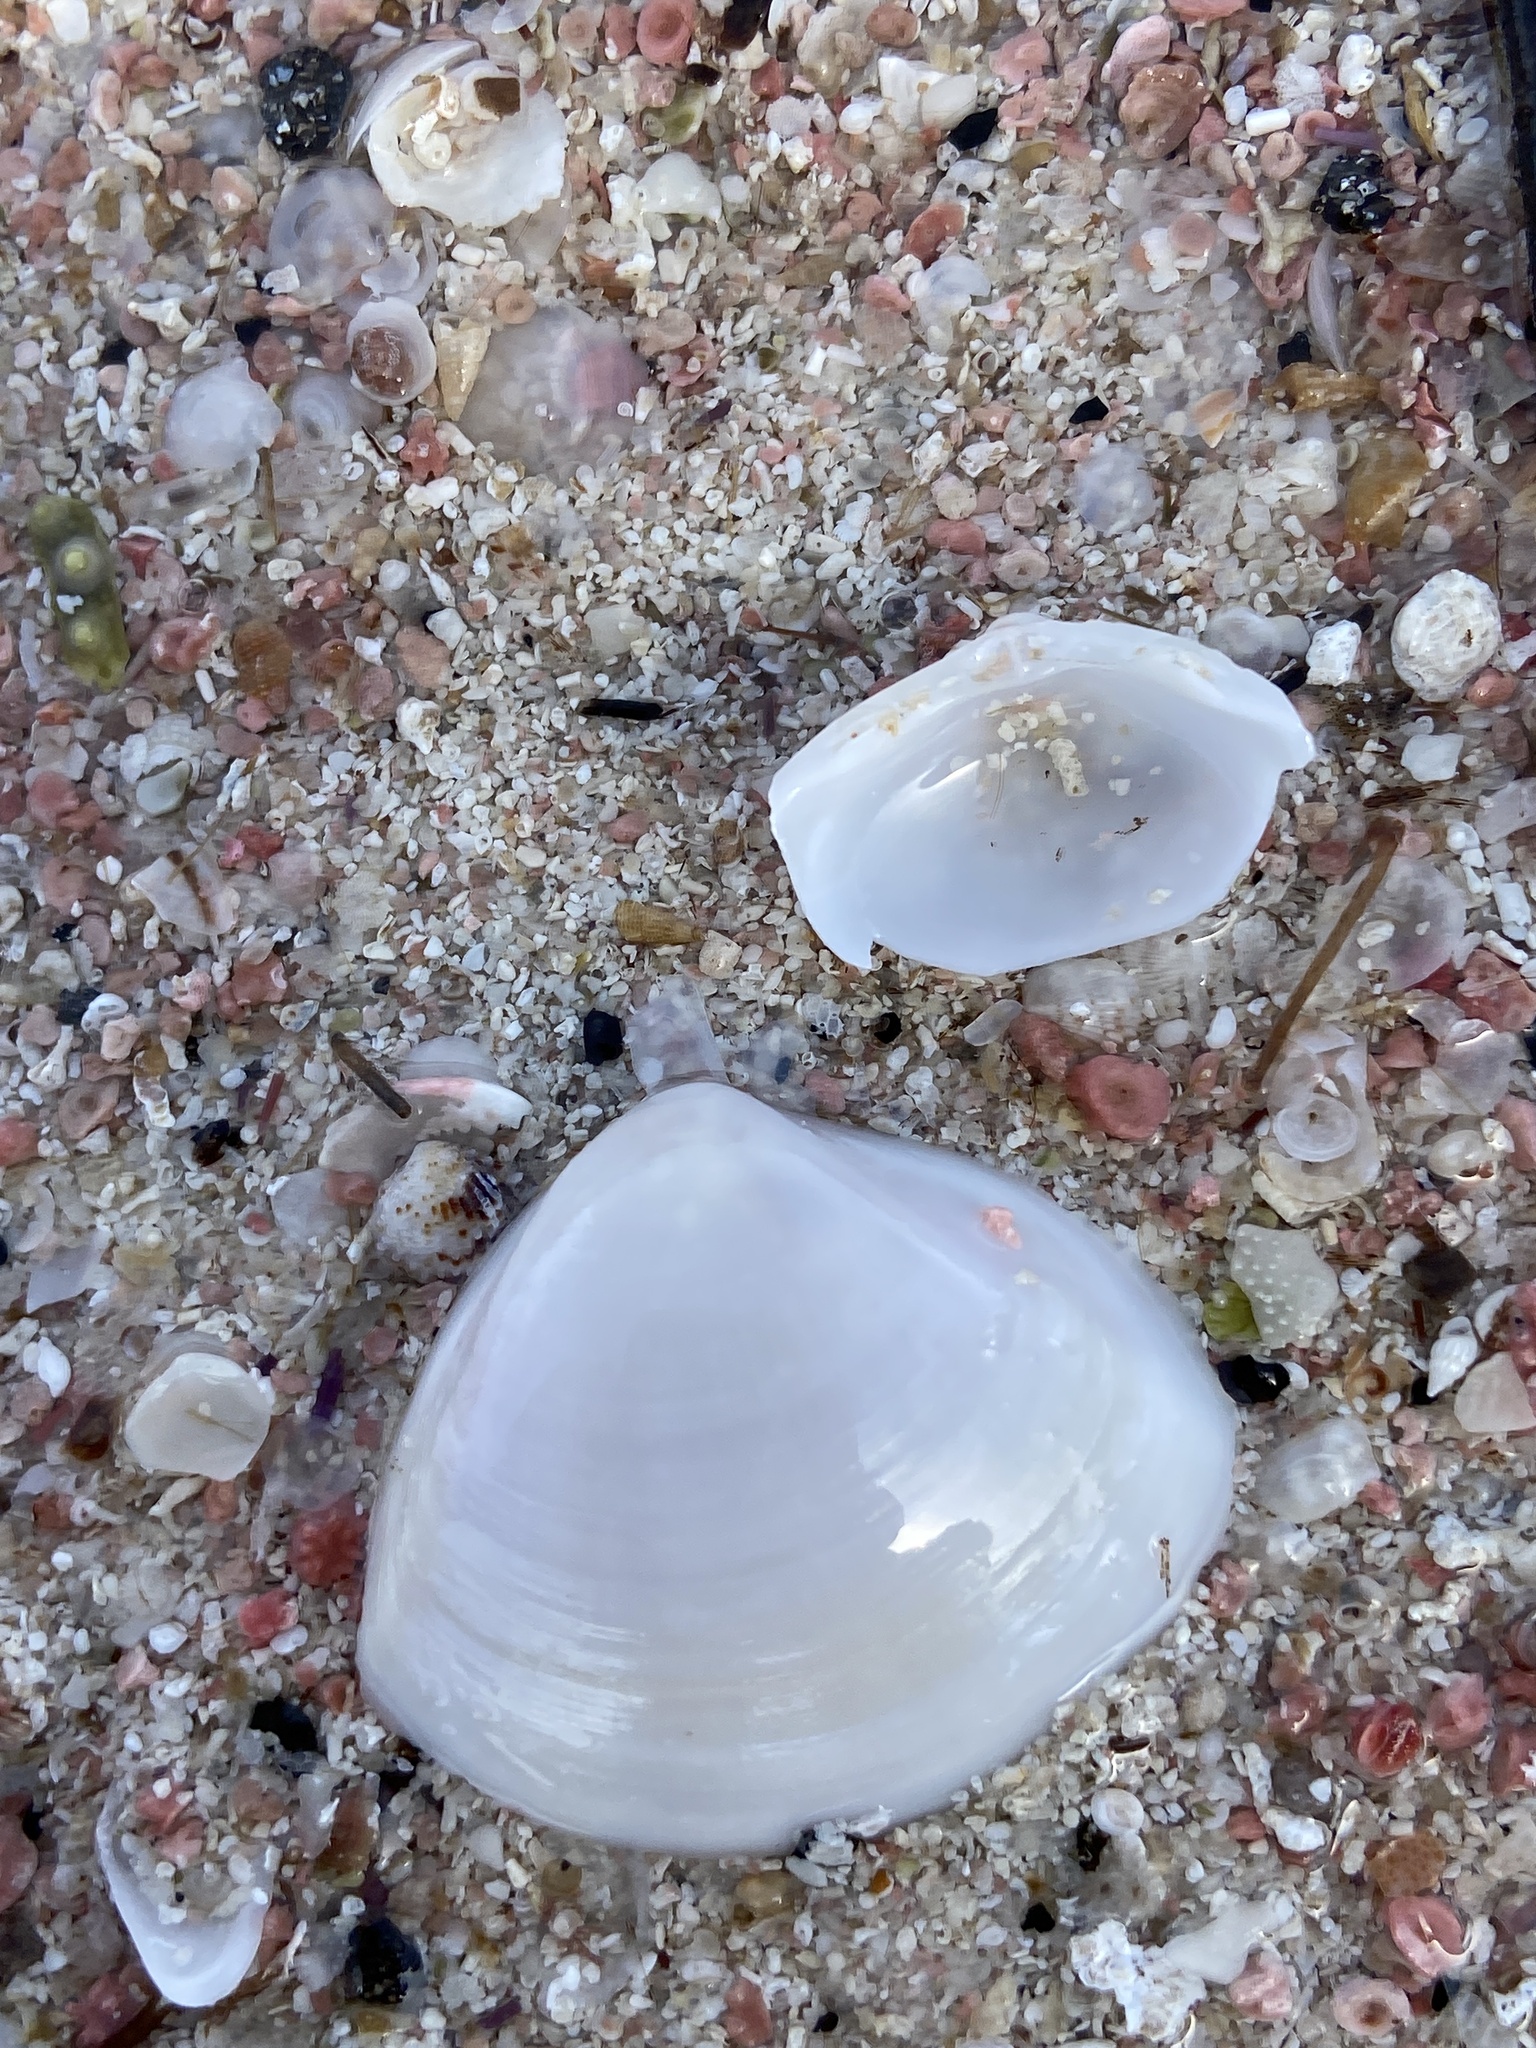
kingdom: Animalia
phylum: Mollusca
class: Bivalvia
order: Venerida
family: Mactridae
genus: Mactra
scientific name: Mactra stultorum
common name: Rayed trough shell
